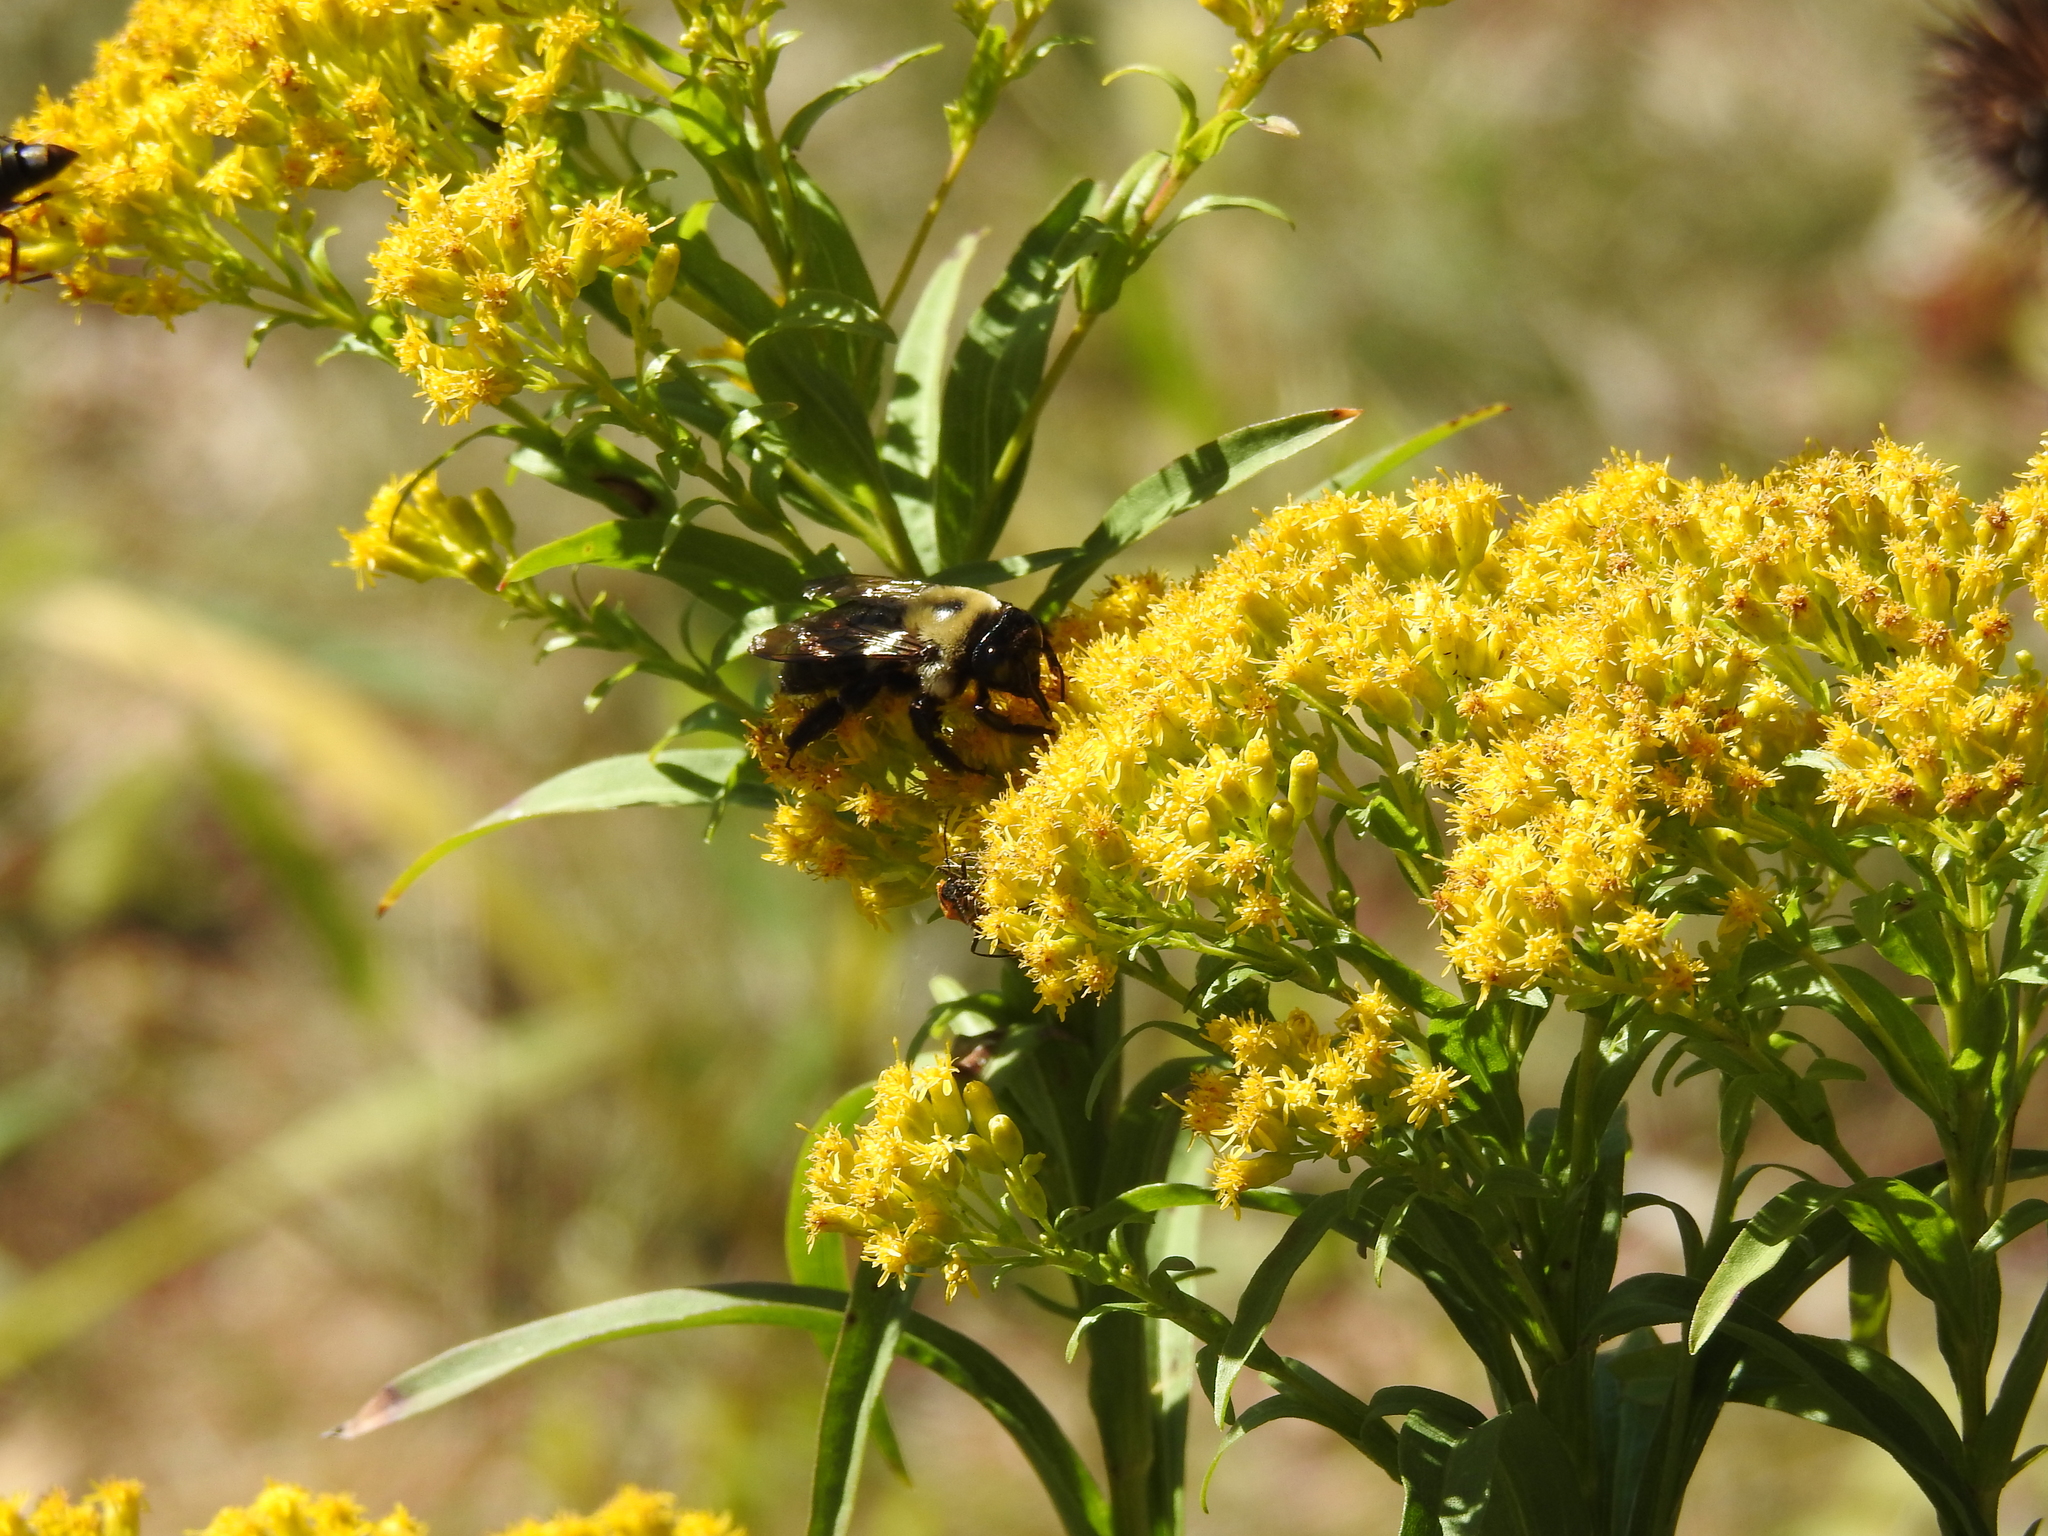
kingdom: Animalia
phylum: Arthropoda
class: Insecta
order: Hymenoptera
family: Apidae
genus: Xylocopa
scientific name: Xylocopa virginica
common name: Carpenter bee
